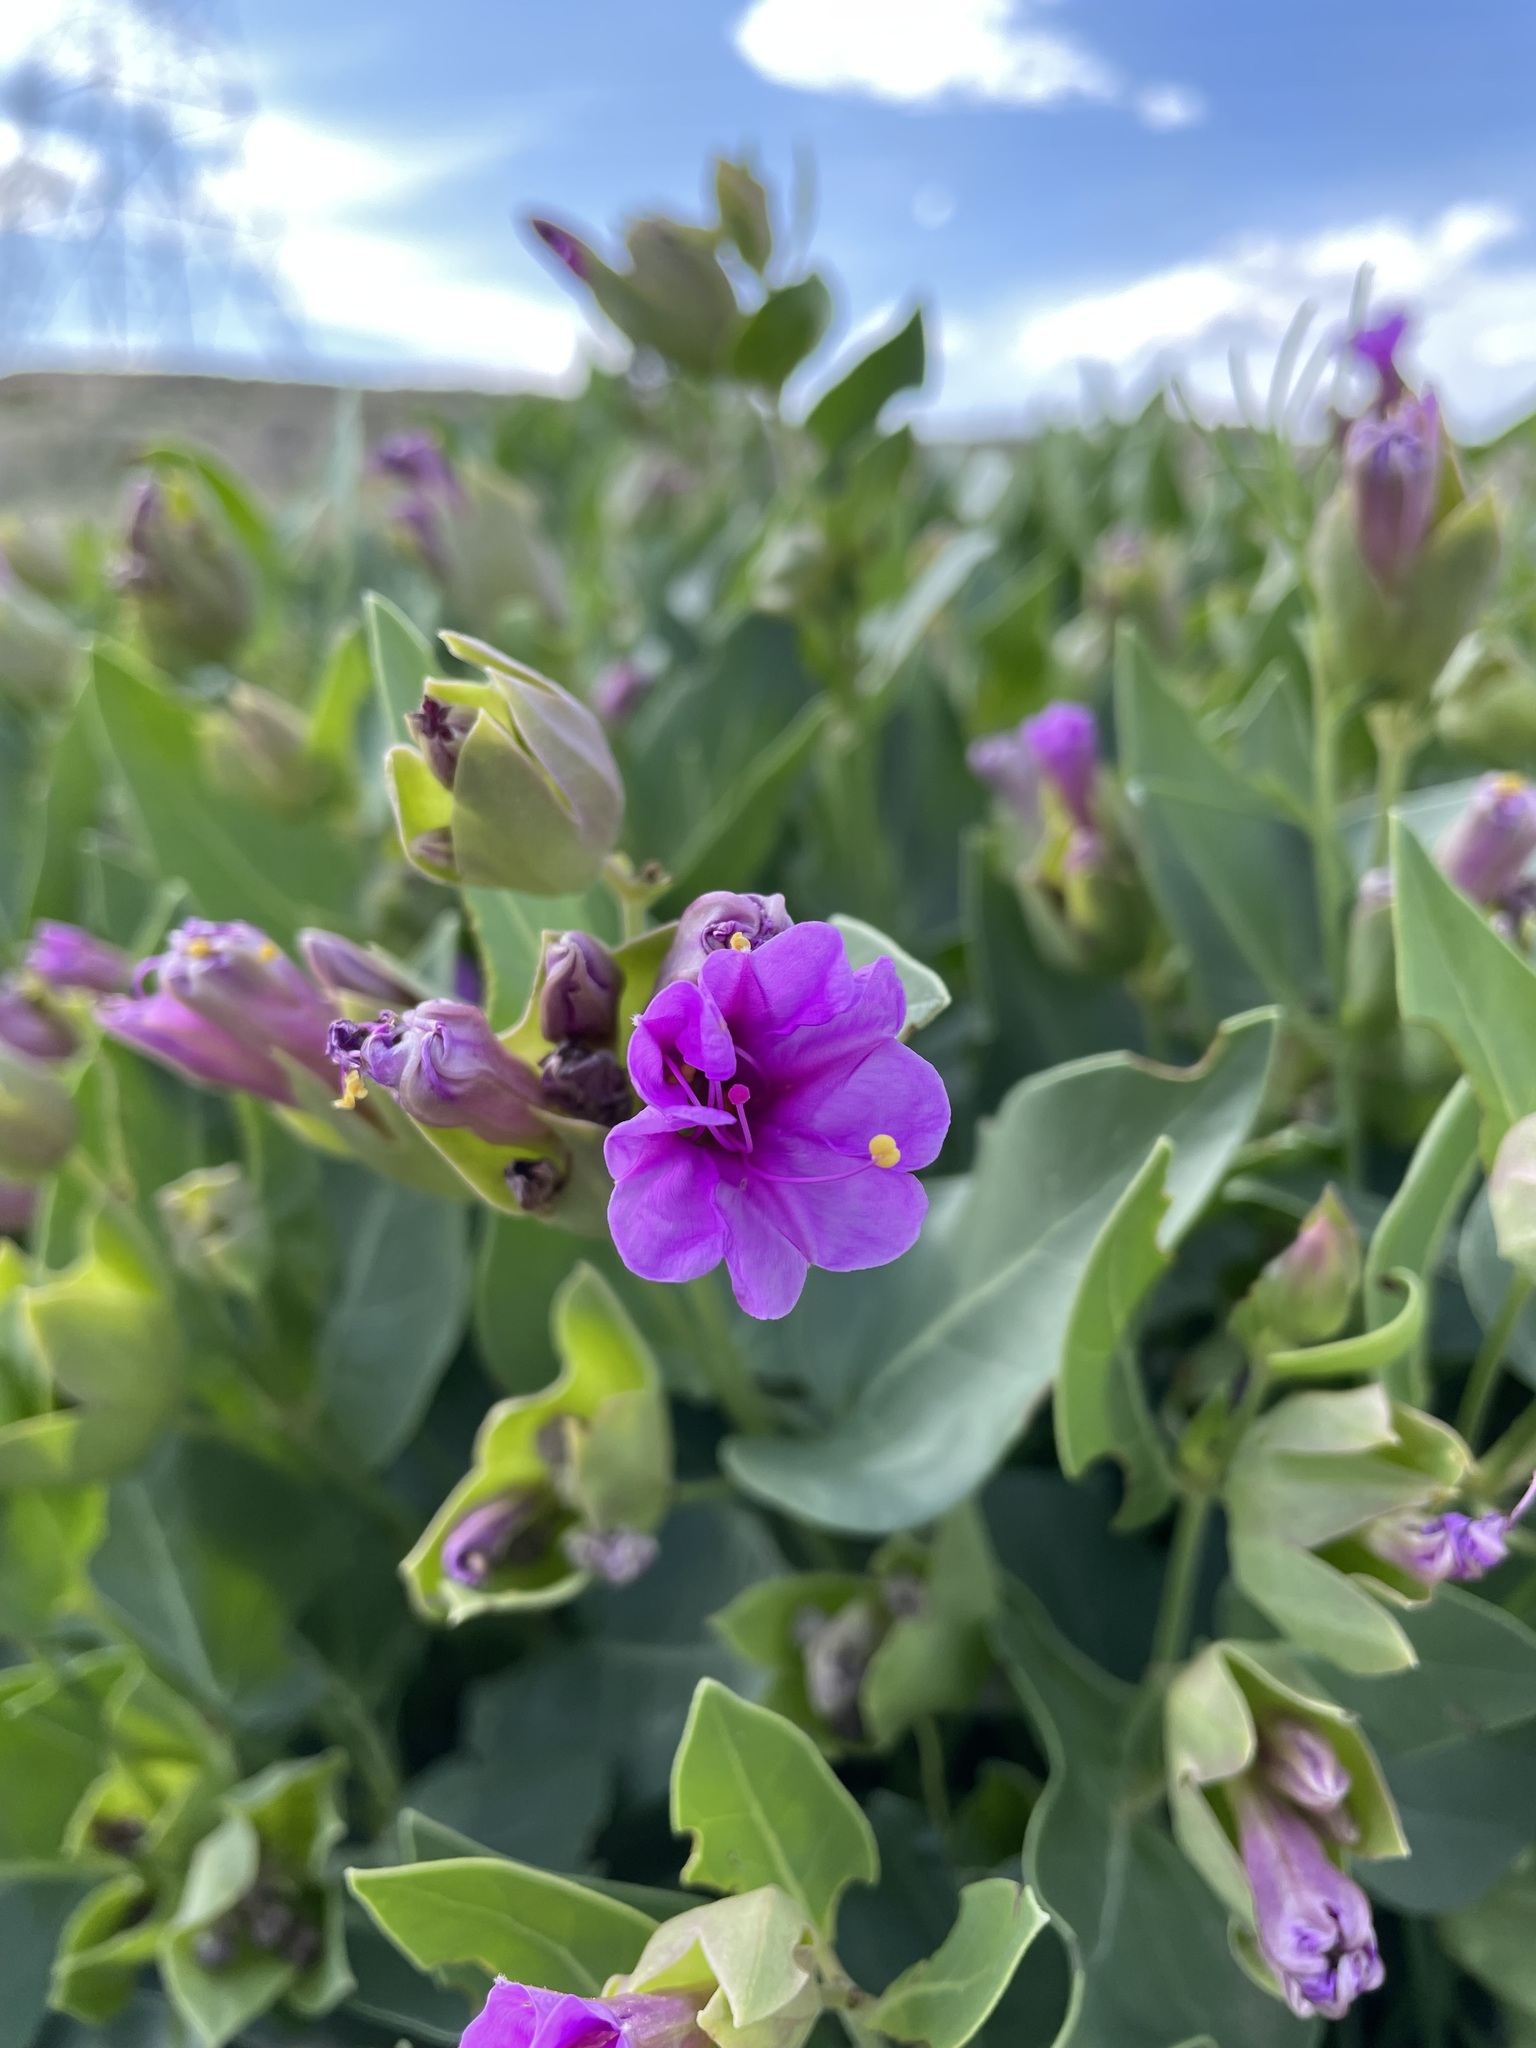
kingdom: Plantae
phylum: Tracheophyta
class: Magnoliopsida
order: Caryophyllales
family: Nyctaginaceae
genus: Mirabilis
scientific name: Mirabilis multiflora
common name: Froebel's four-o'clock
